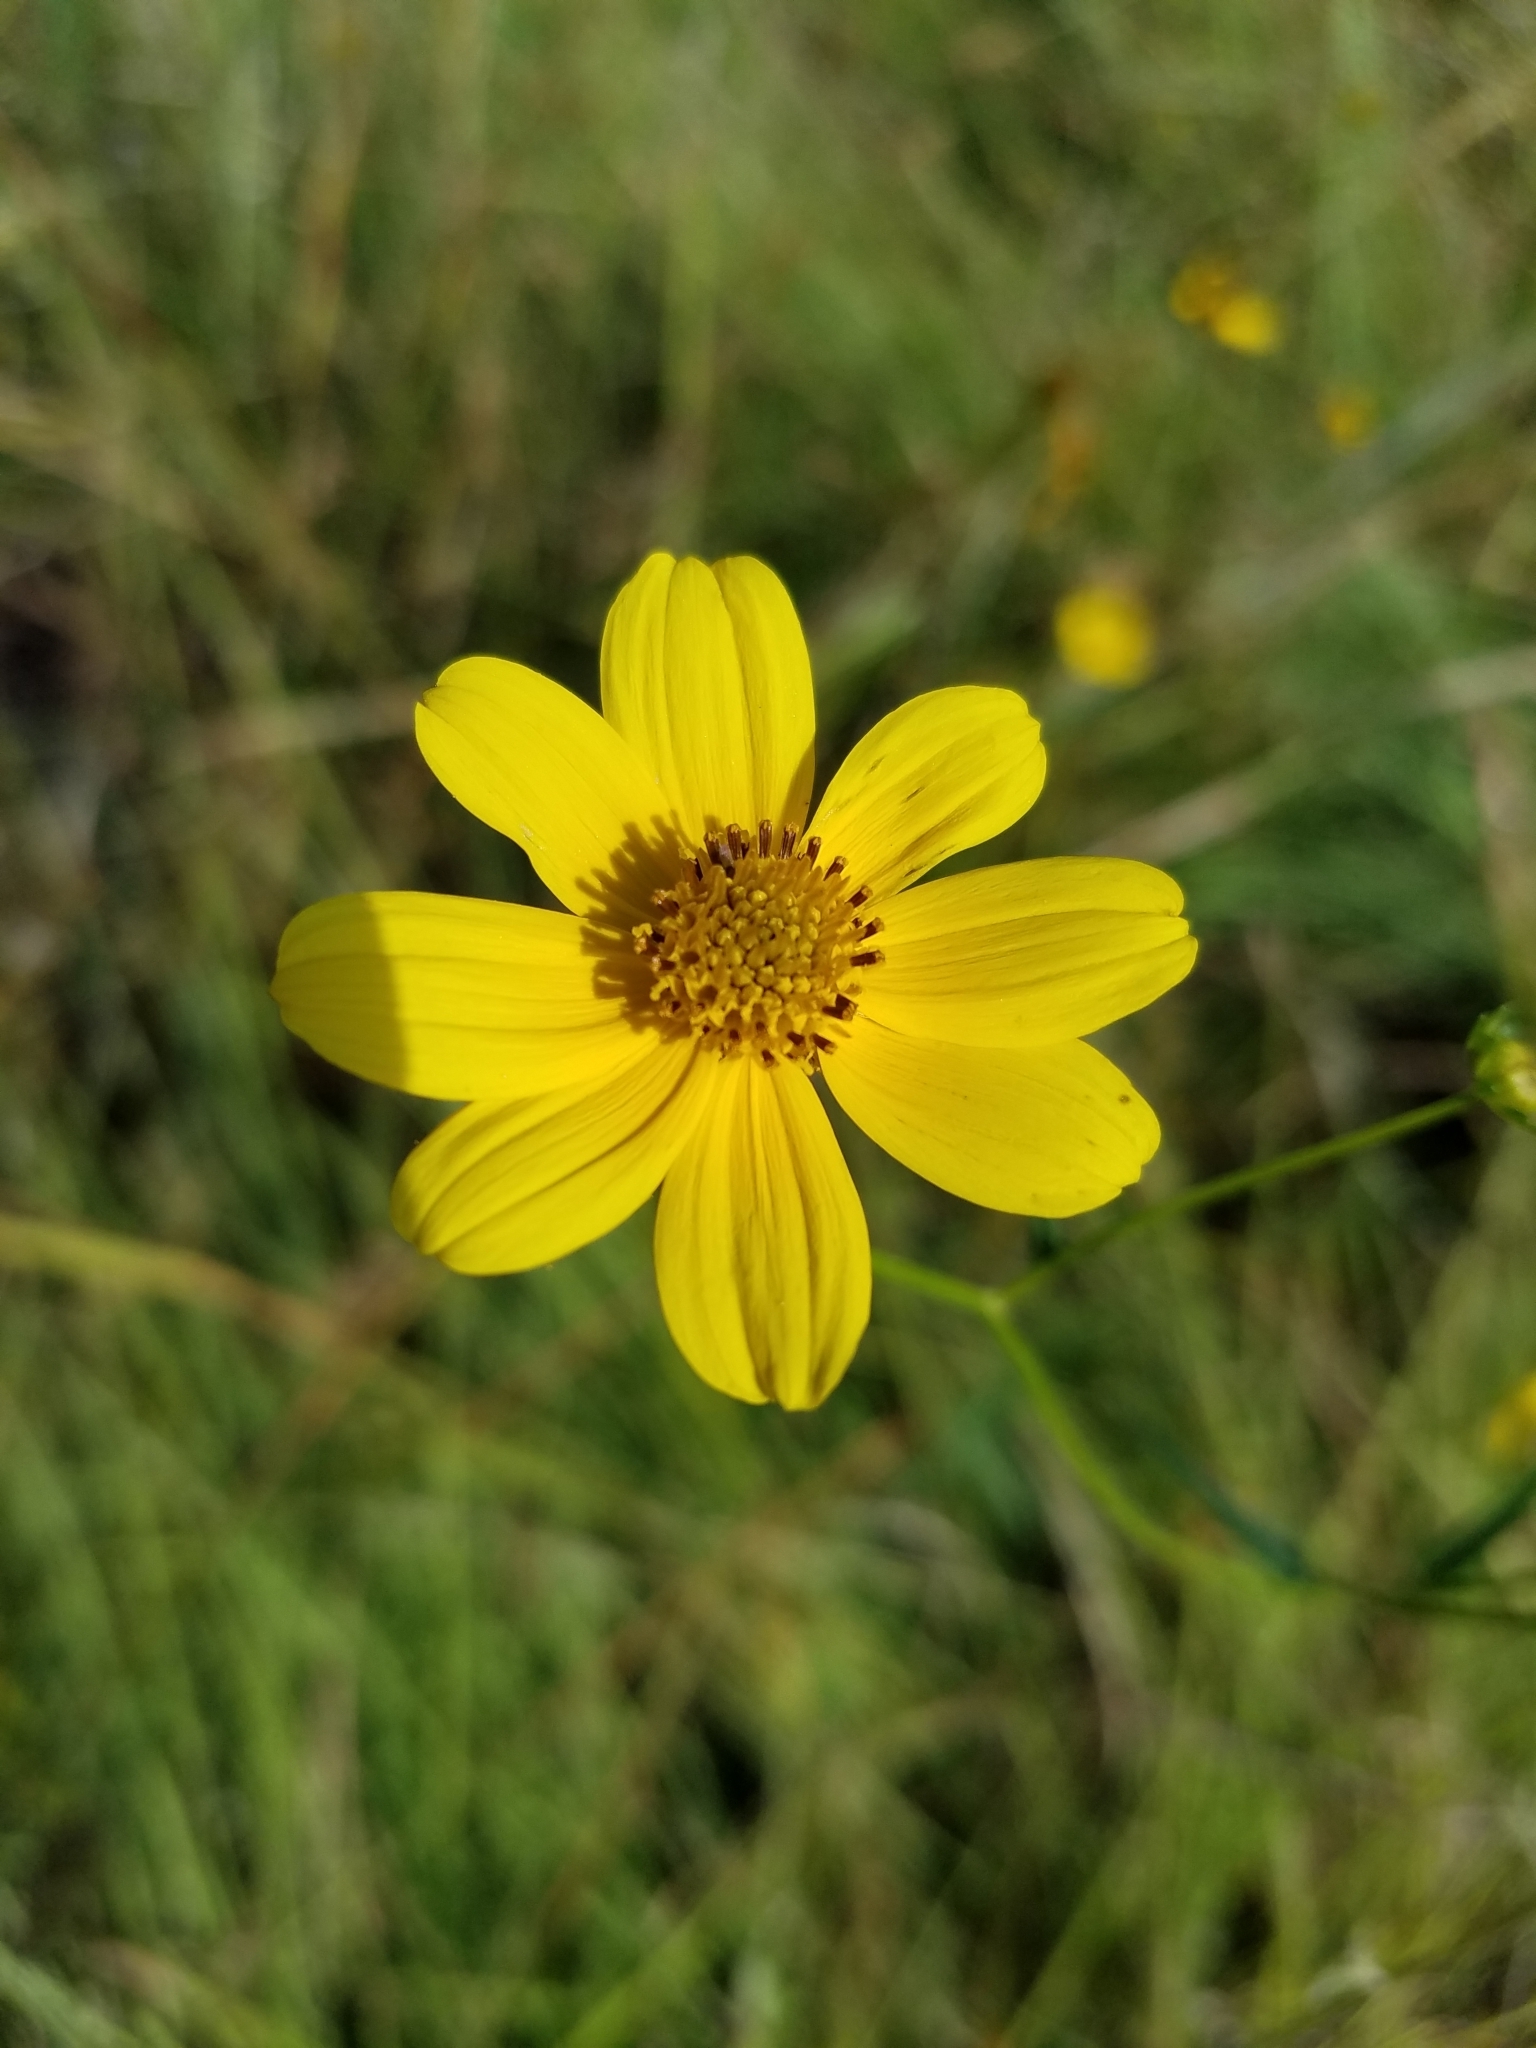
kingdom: Plantae
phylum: Tracheophyta
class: Magnoliopsida
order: Asterales
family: Asteraceae
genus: Bidens
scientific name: Bidens mitis
